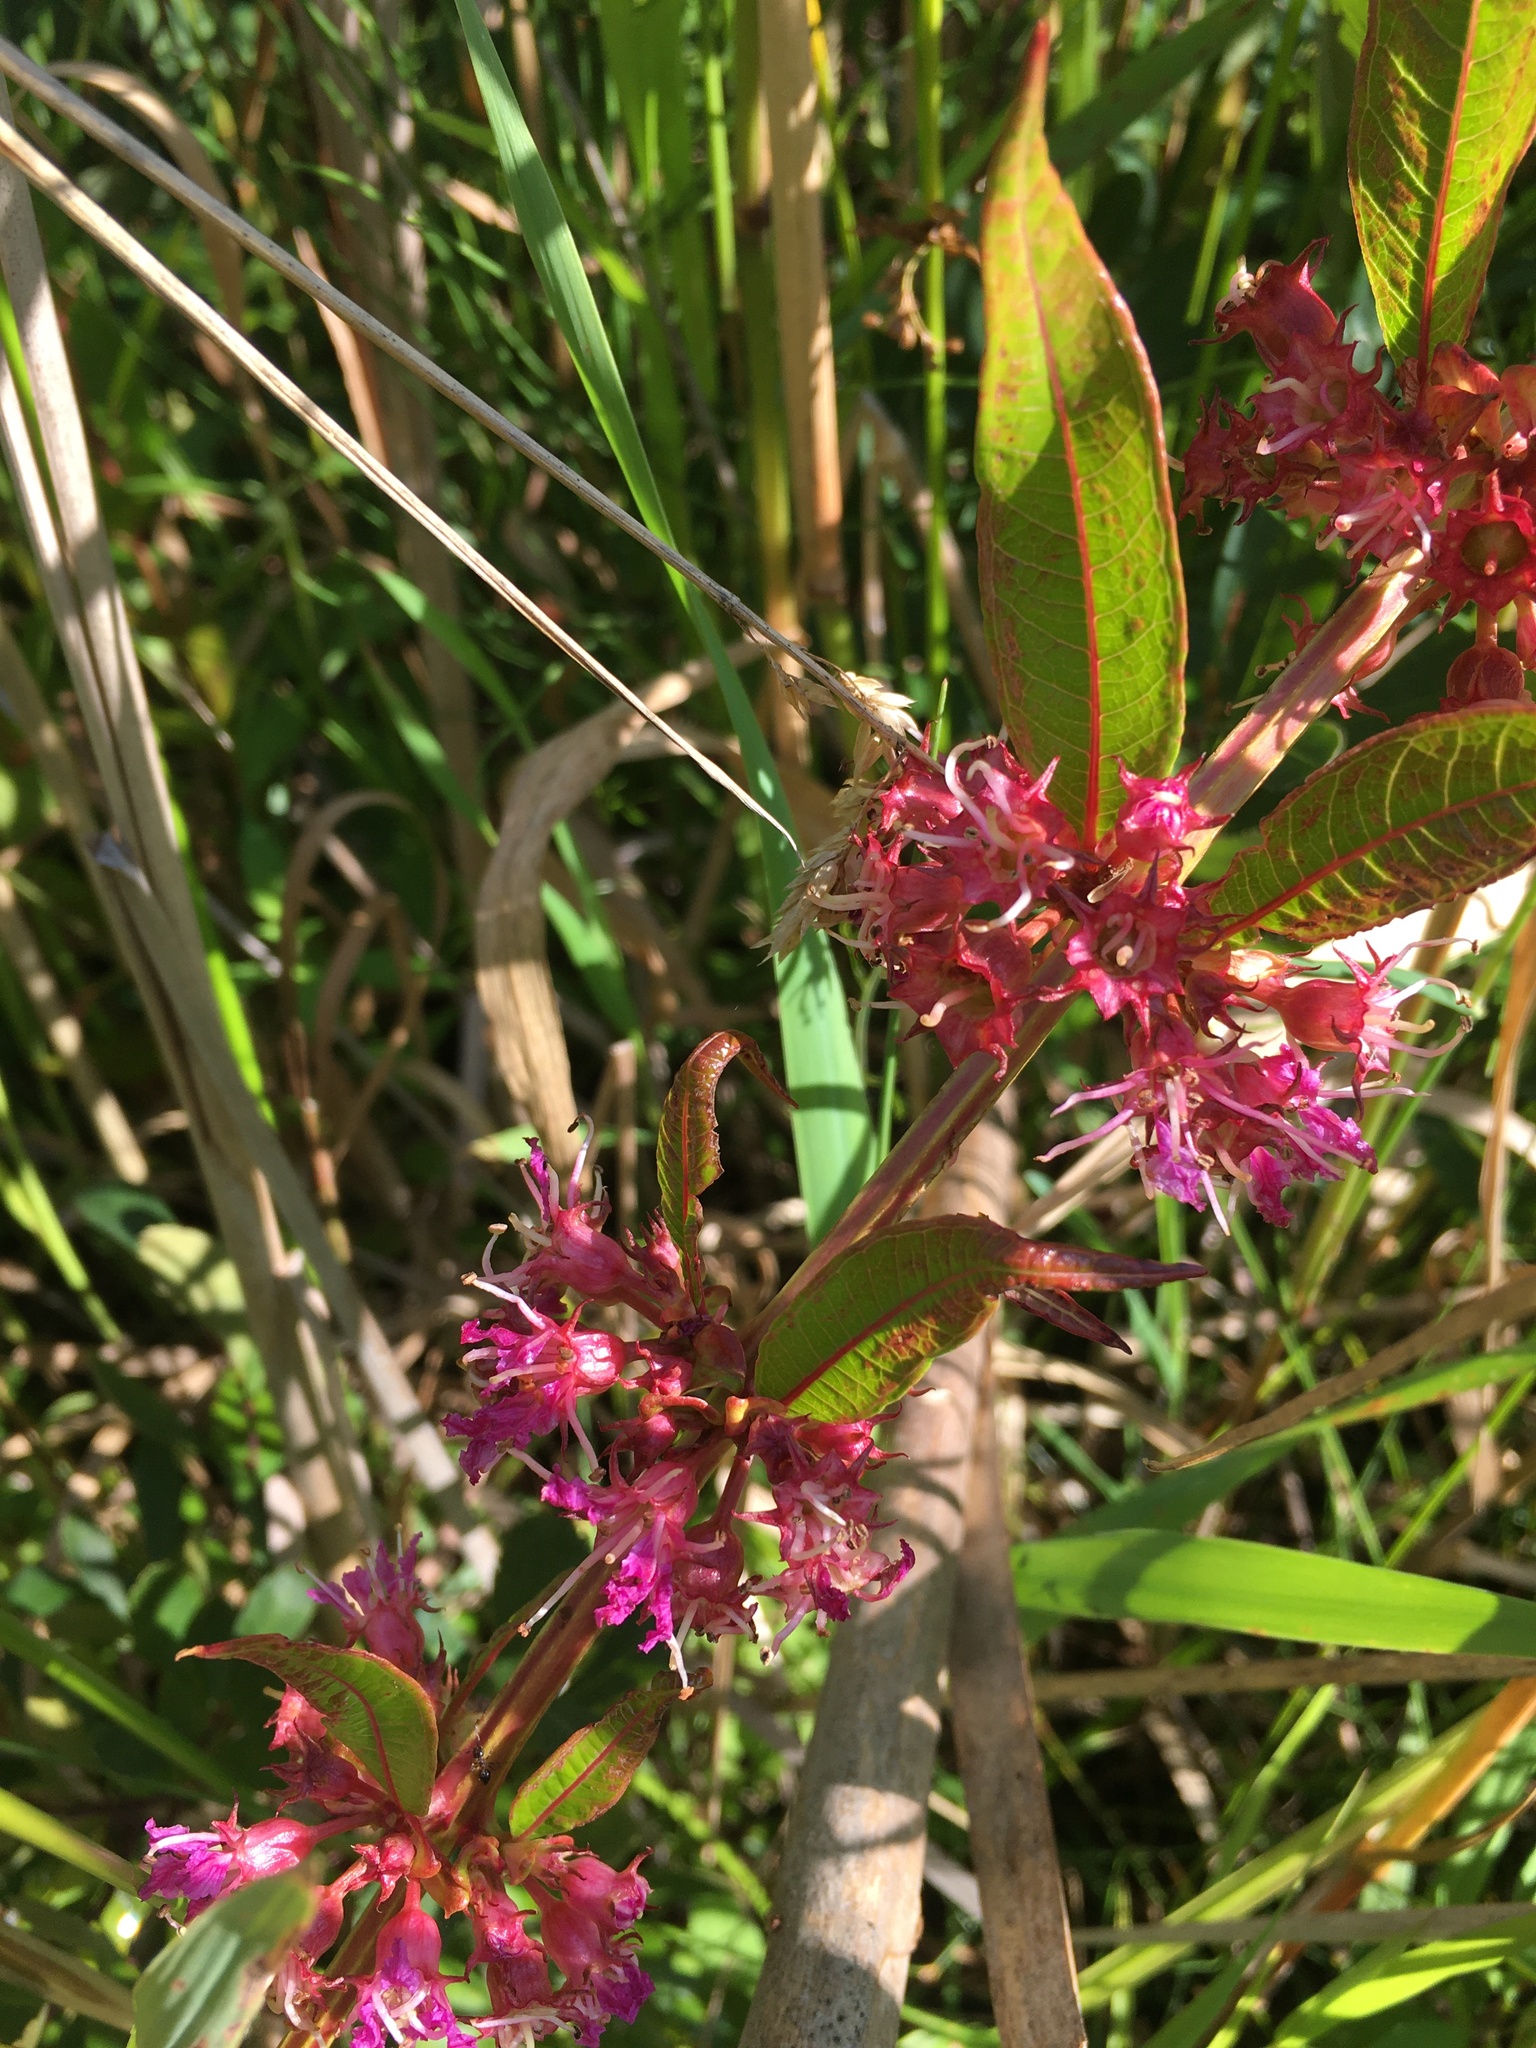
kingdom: Plantae
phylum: Tracheophyta
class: Magnoliopsida
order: Myrtales
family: Lythraceae
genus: Decodon
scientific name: Decodon verticillatus
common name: Hairy swamp loosestrife
